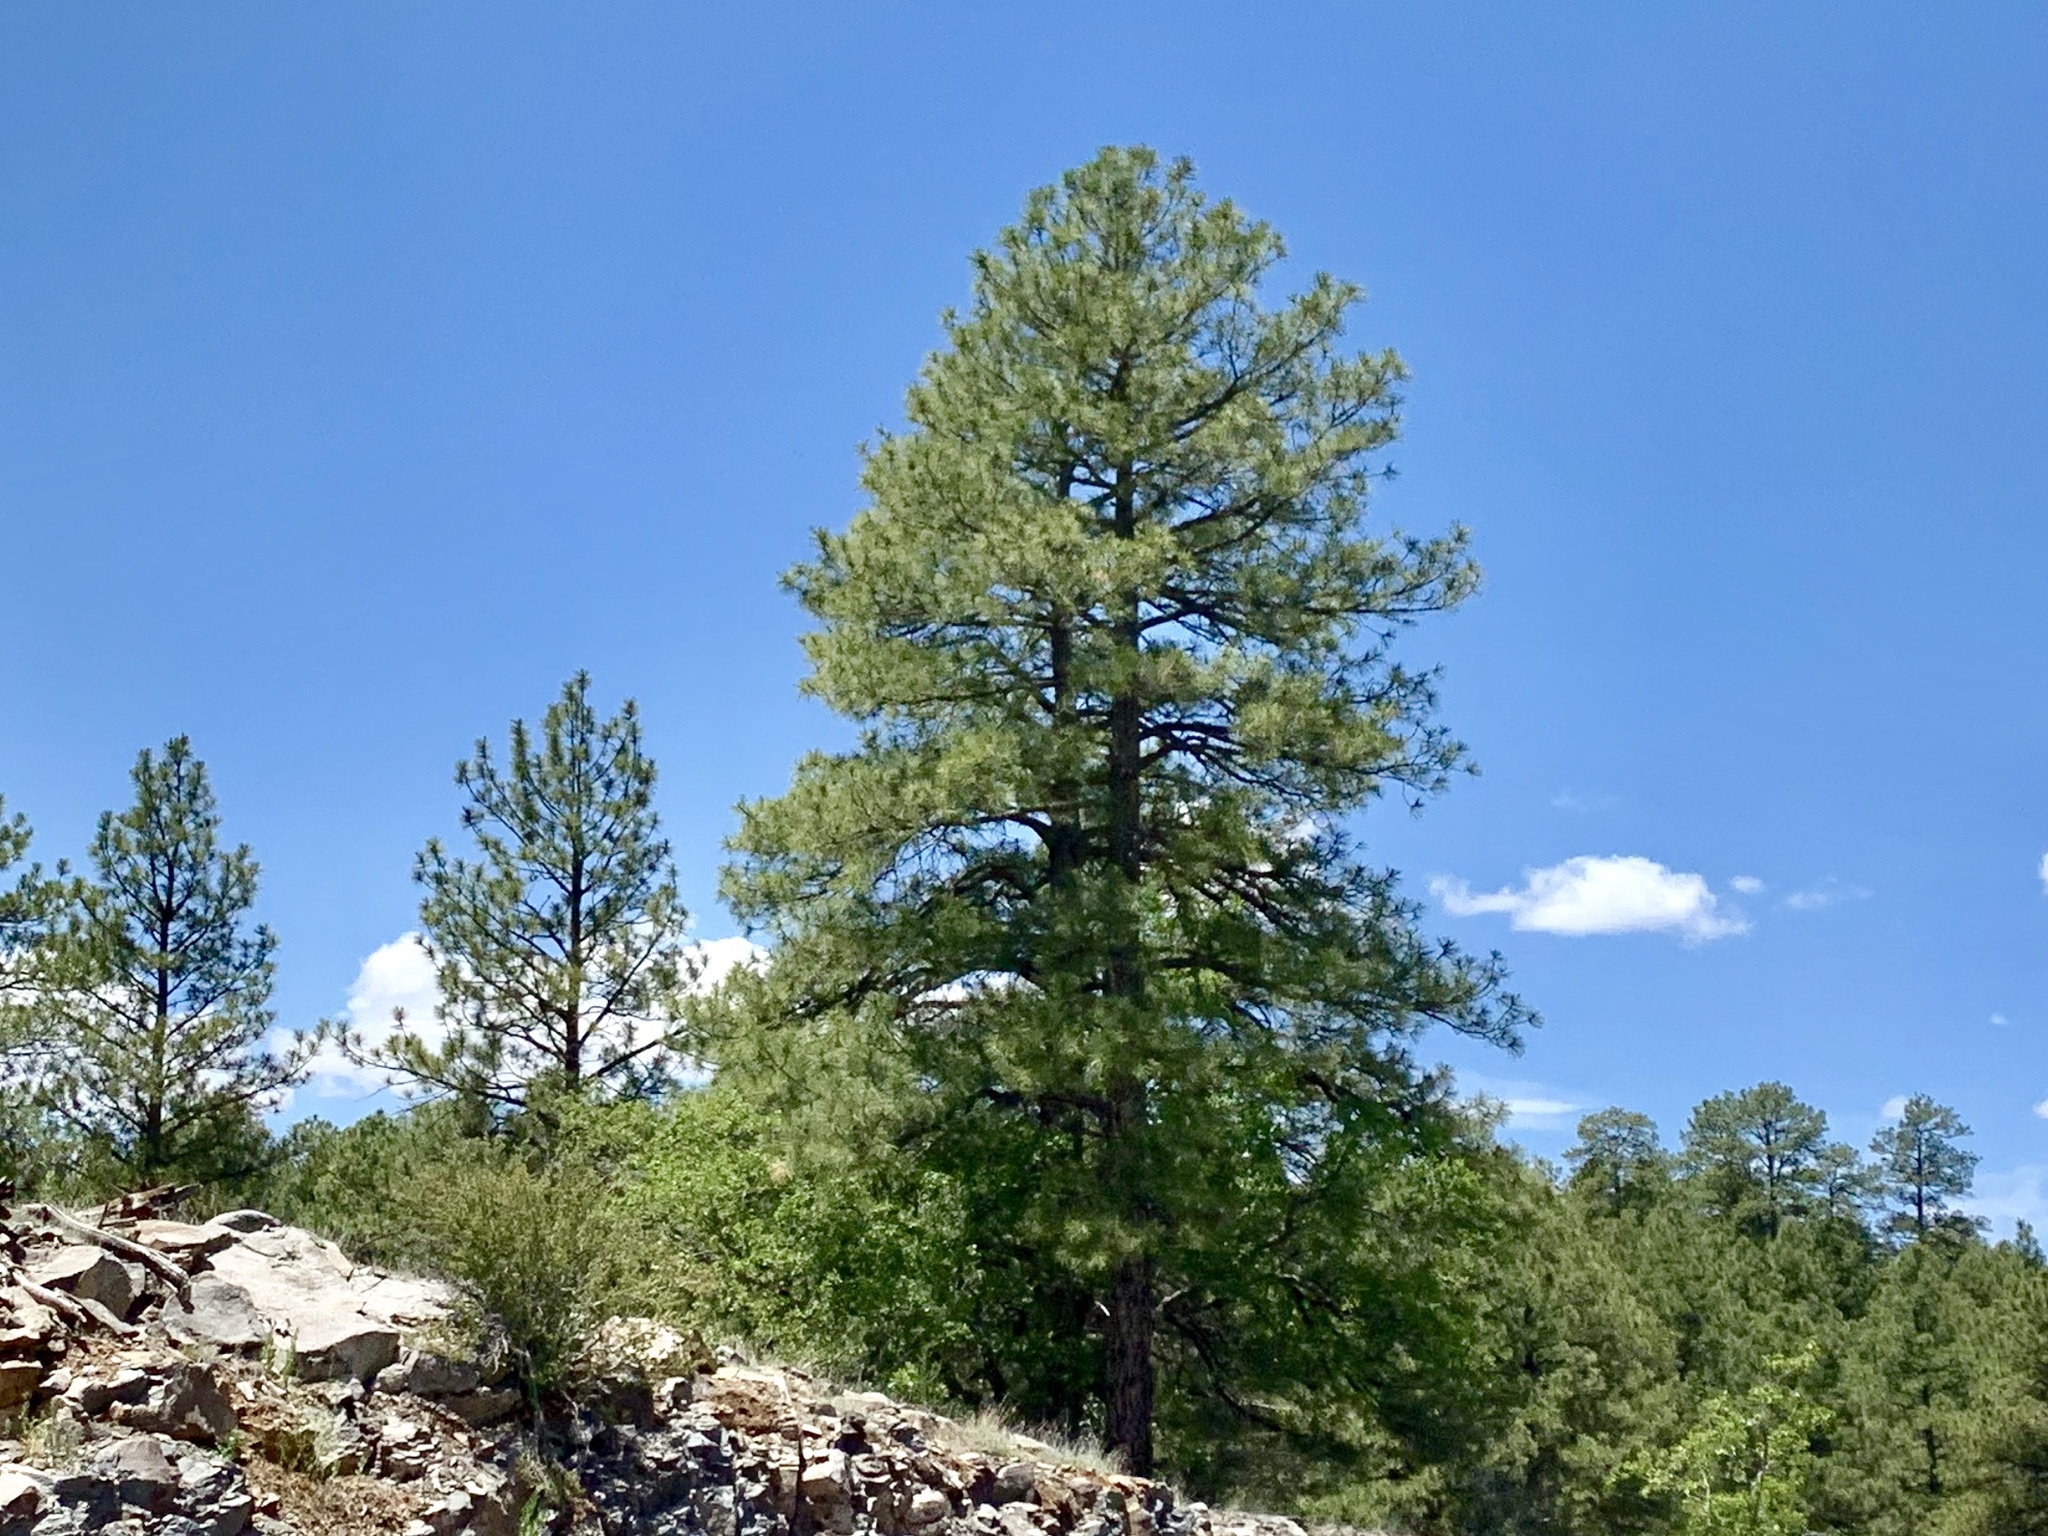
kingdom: Plantae
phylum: Tracheophyta
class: Pinopsida
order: Pinales
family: Pinaceae
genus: Pinus
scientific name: Pinus ponderosa
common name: Western yellow-pine
